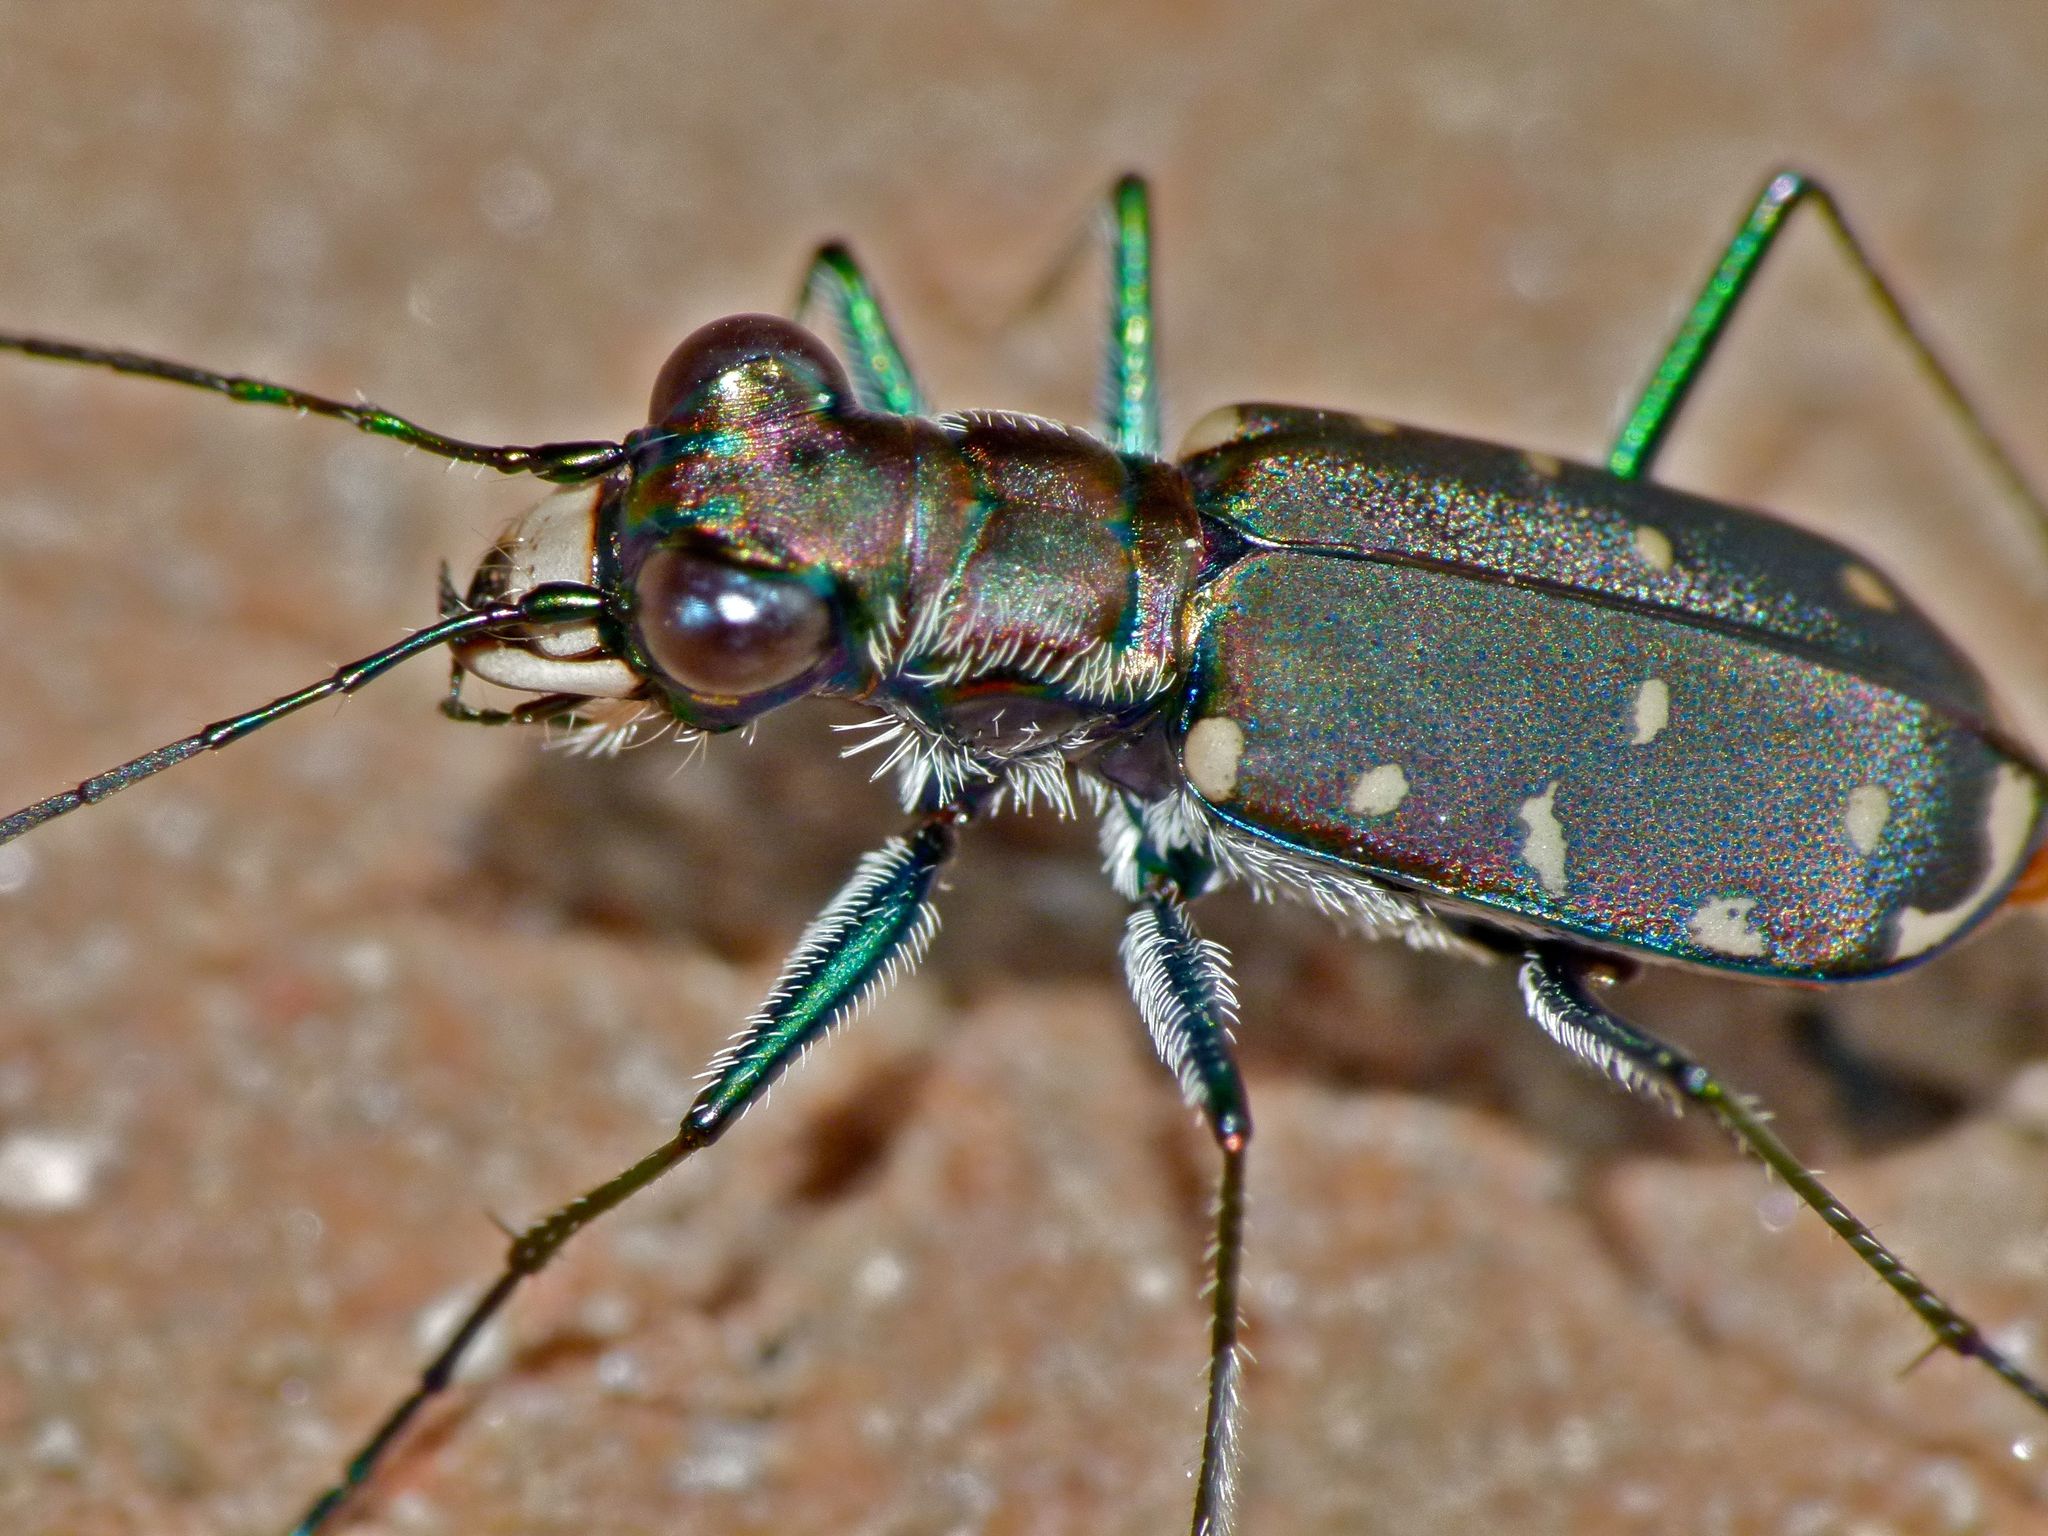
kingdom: Animalia
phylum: Arthropoda
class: Insecta
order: Coleoptera
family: Carabidae
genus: Cicindela
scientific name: Cicindela rufiventris
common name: Eastern red-bellied tiger beetle
